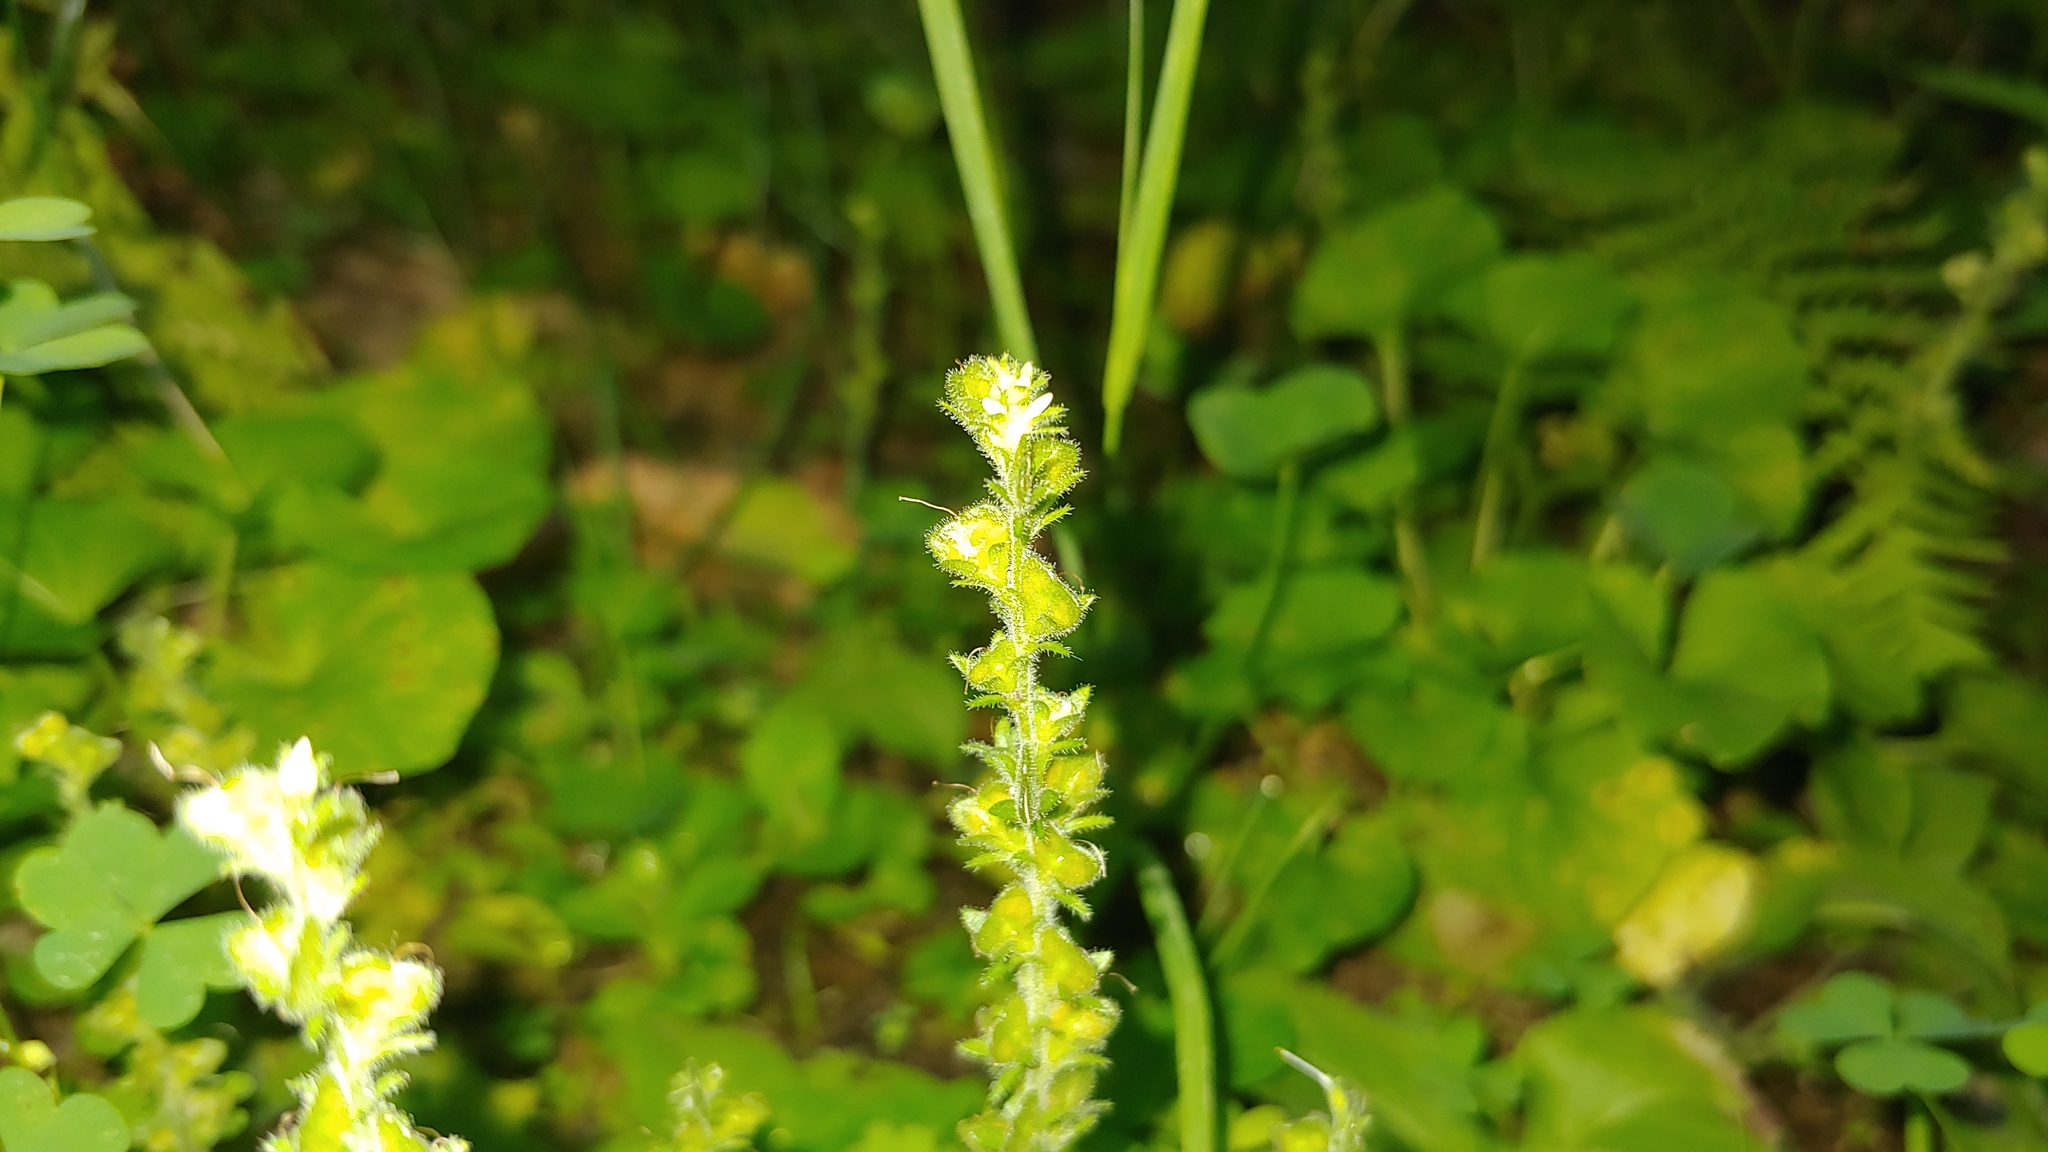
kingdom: Plantae
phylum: Tracheophyta
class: Magnoliopsida
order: Lamiales
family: Plantaginaceae
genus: Veronica
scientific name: Veronica officinalis
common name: Common speedwell
